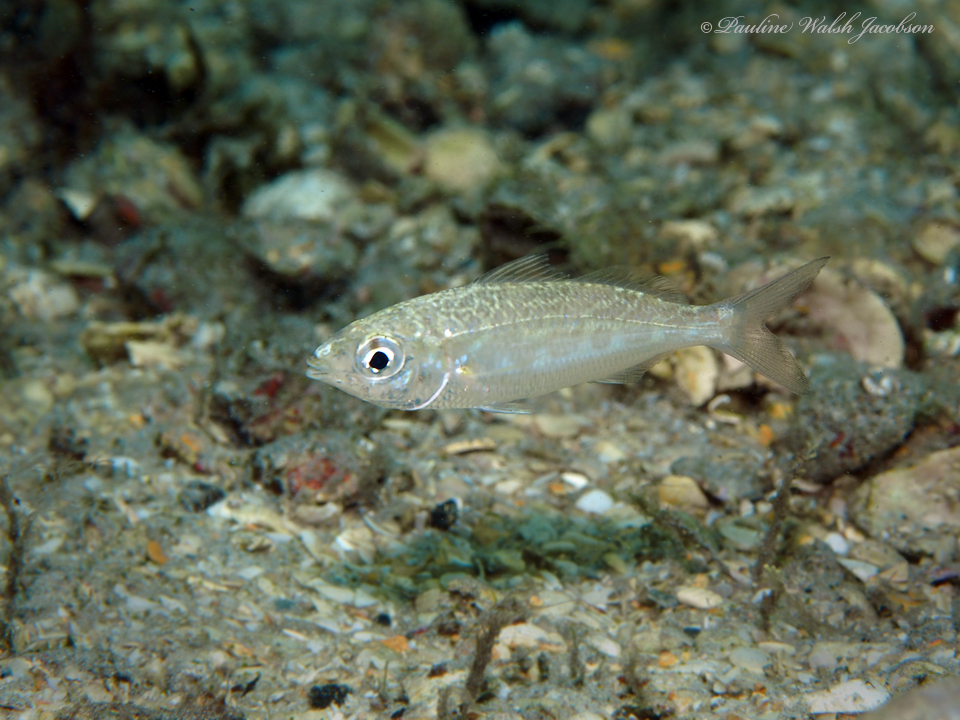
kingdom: Animalia
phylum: Chordata
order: Perciformes
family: Gerreidae
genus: Ulaema
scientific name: Ulaema lefroyi
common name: Mottled mojarra
